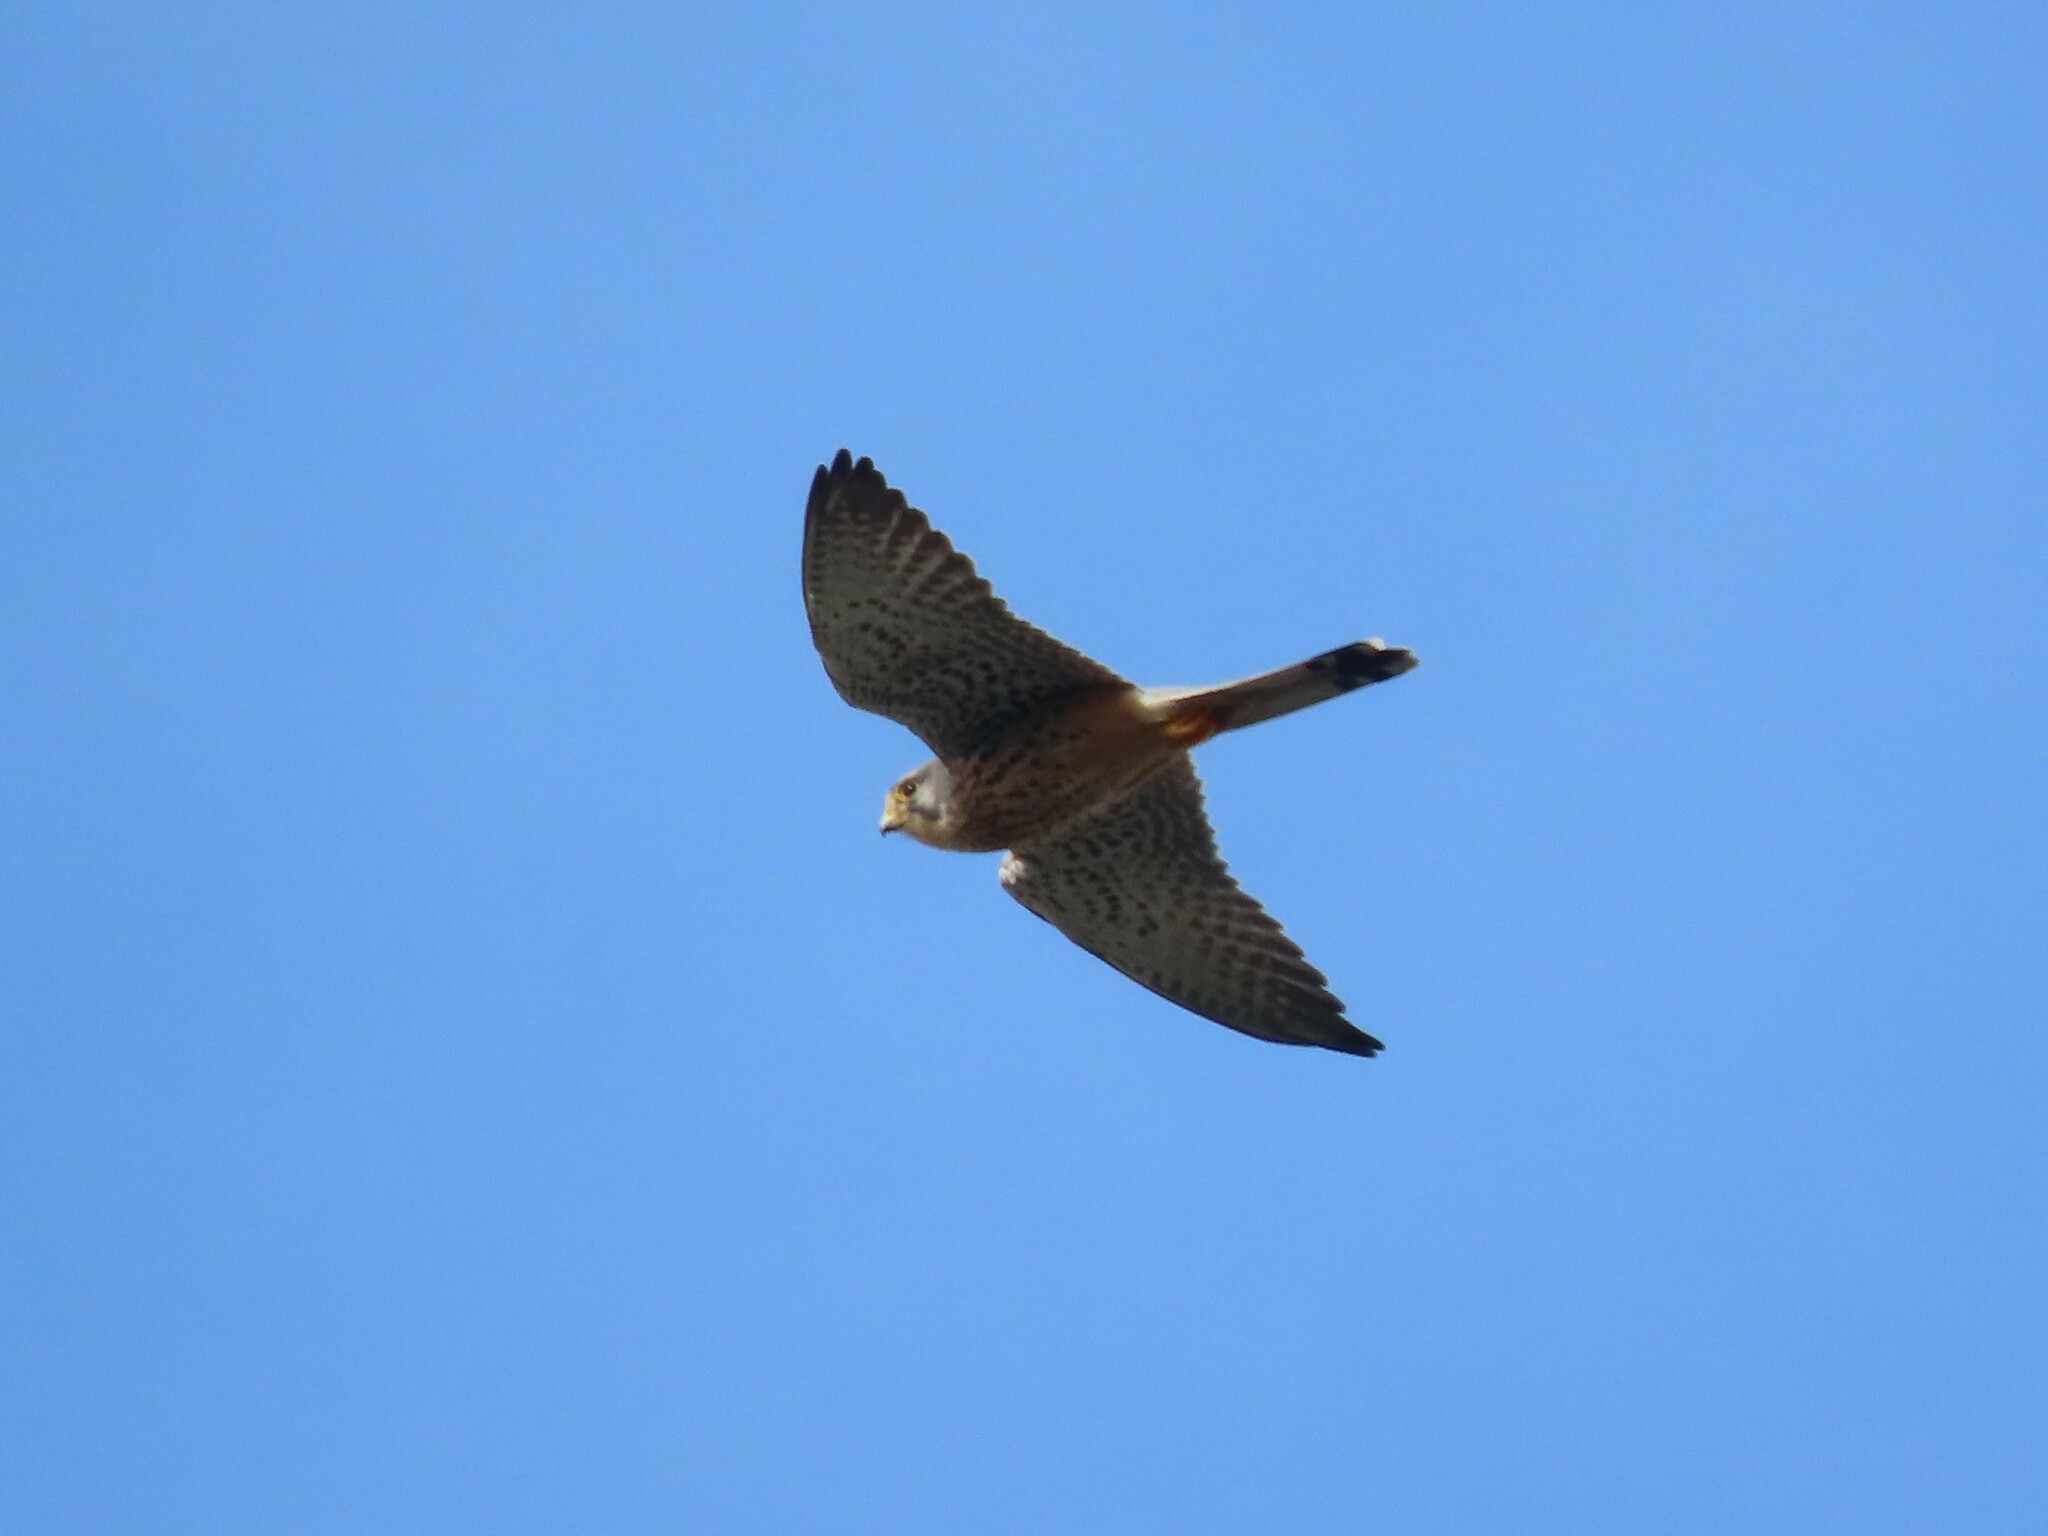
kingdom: Animalia
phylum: Chordata
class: Aves
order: Falconiformes
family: Falconidae
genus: Falco
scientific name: Falco tinnunculus
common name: Common kestrel
